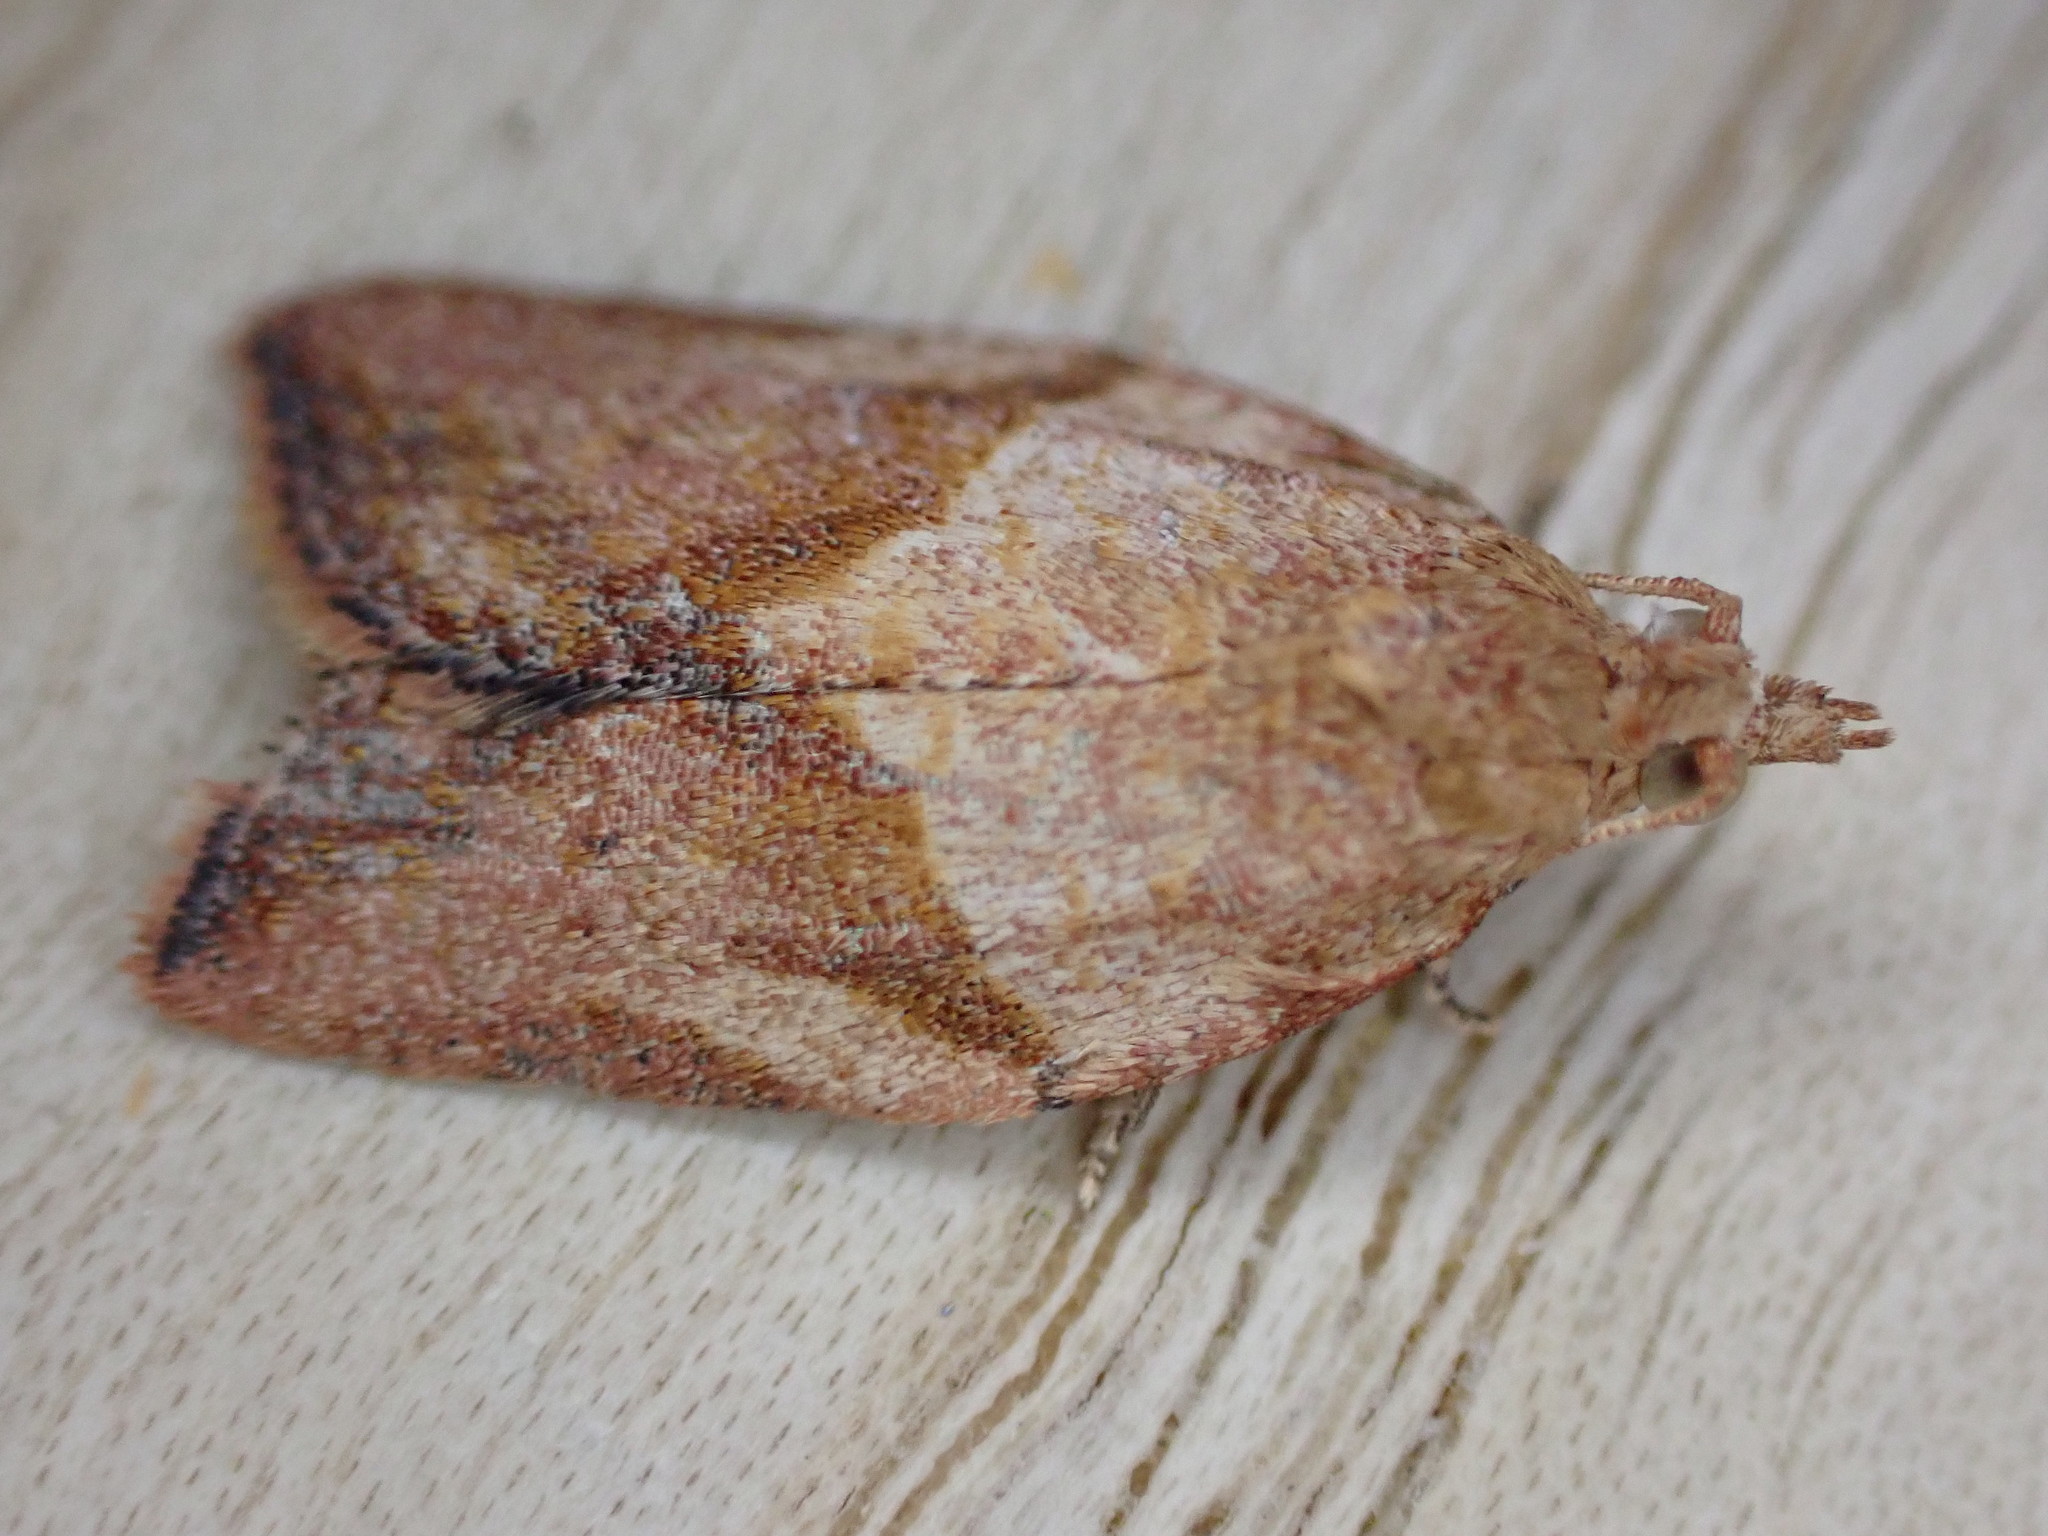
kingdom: Animalia
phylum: Arthropoda
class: Insecta
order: Lepidoptera
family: Tortricidae
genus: Epiphyas
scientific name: Epiphyas postvittana
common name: Light brown apple moth
